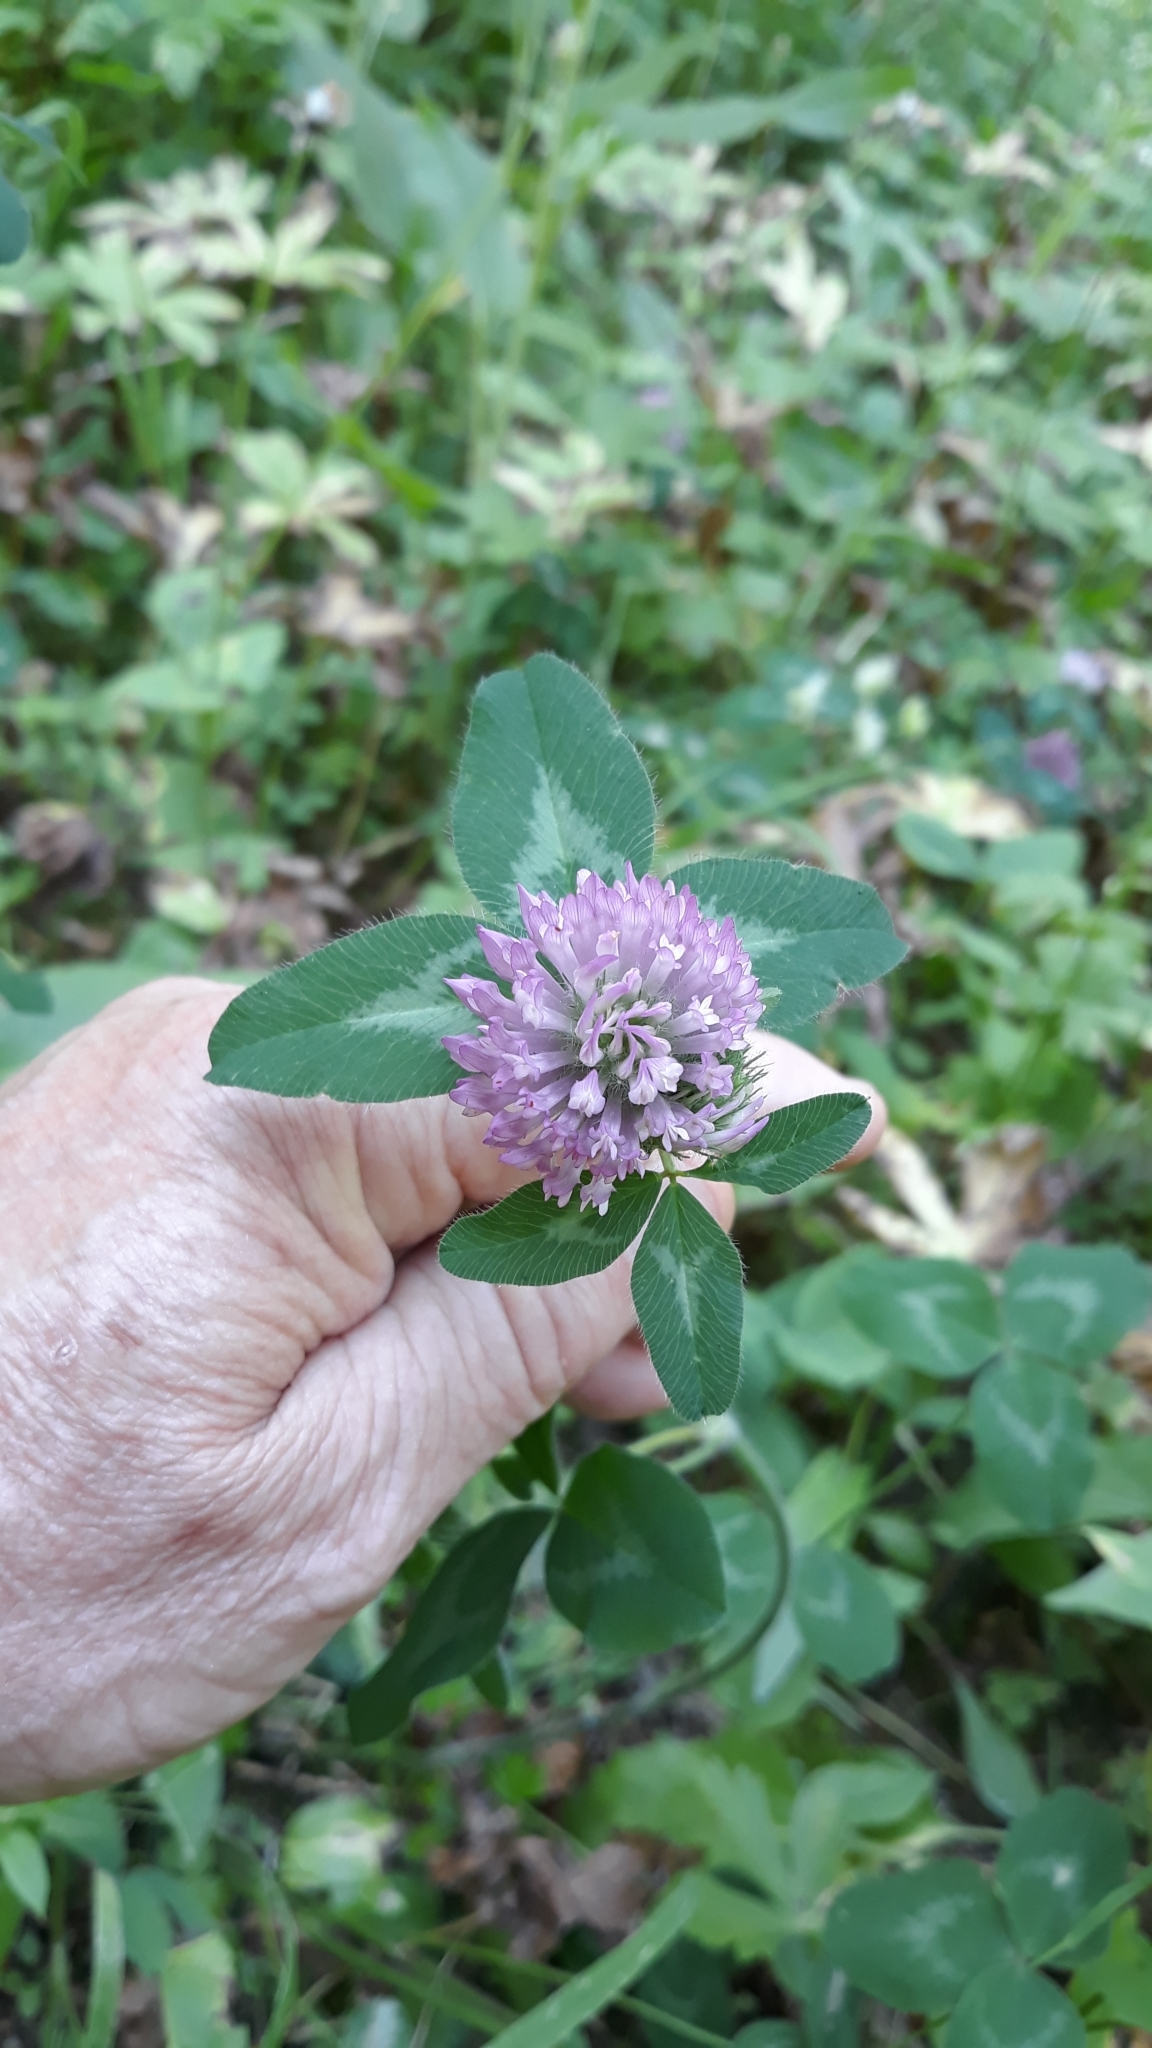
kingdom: Plantae
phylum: Tracheophyta
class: Magnoliopsida
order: Fabales
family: Fabaceae
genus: Trifolium
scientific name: Trifolium pratense
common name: Red clover
